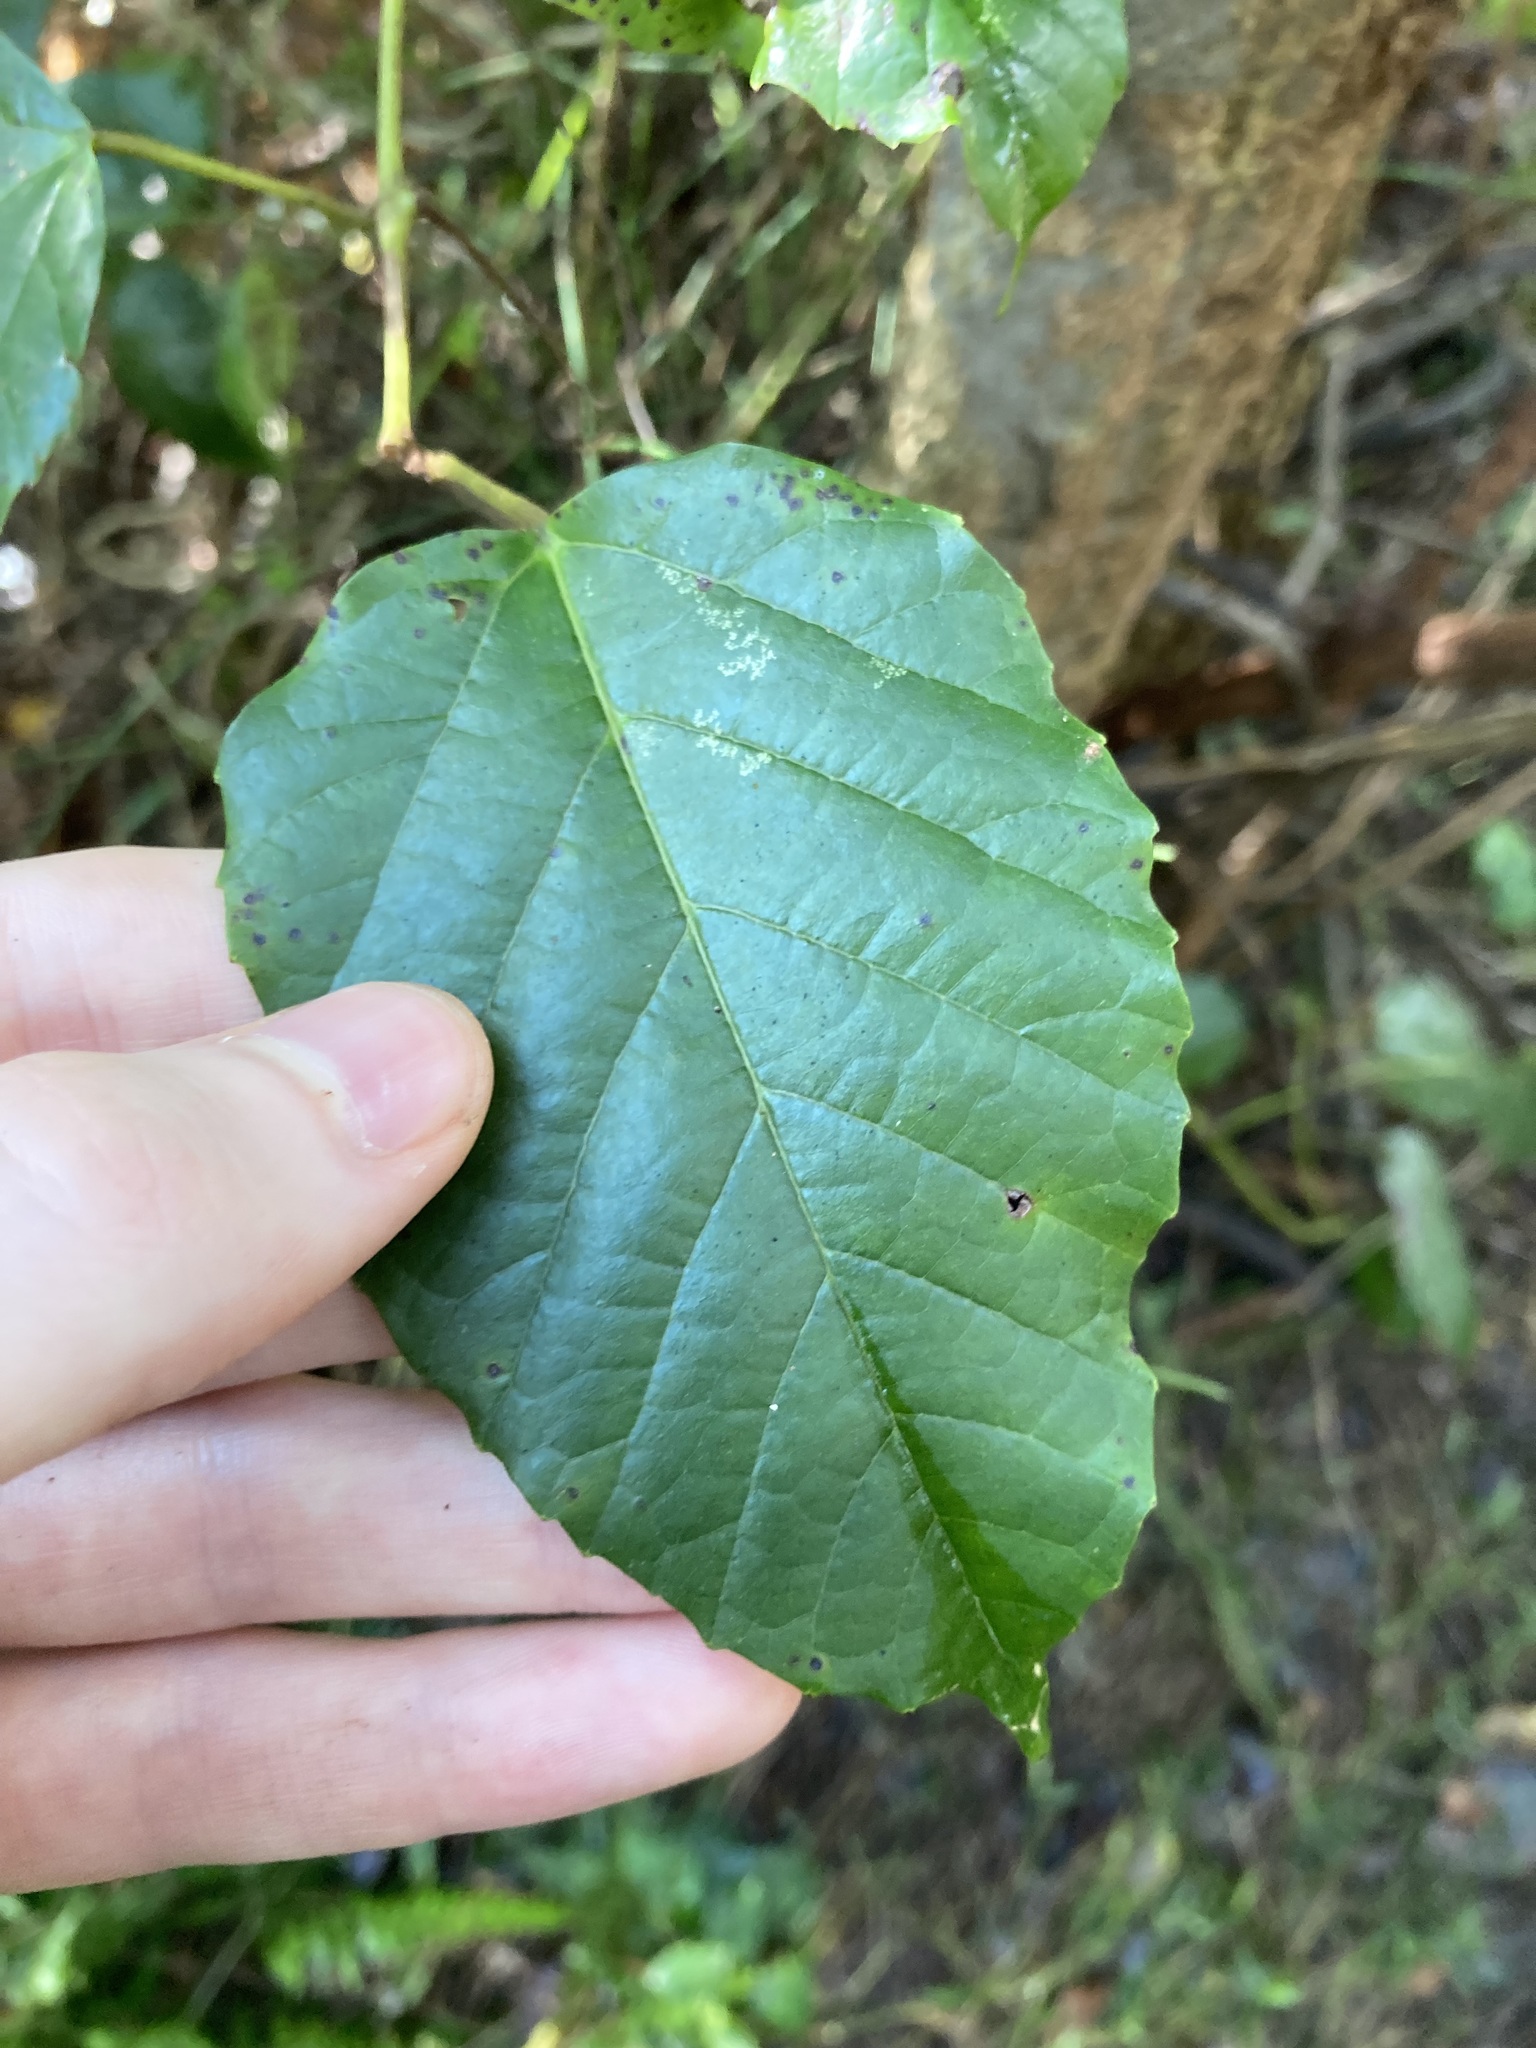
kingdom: Plantae
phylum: Tracheophyta
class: Magnoliopsida
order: Vitales
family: Vitaceae
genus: Cissus
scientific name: Cissus antarctica
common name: Kangaroo vine
